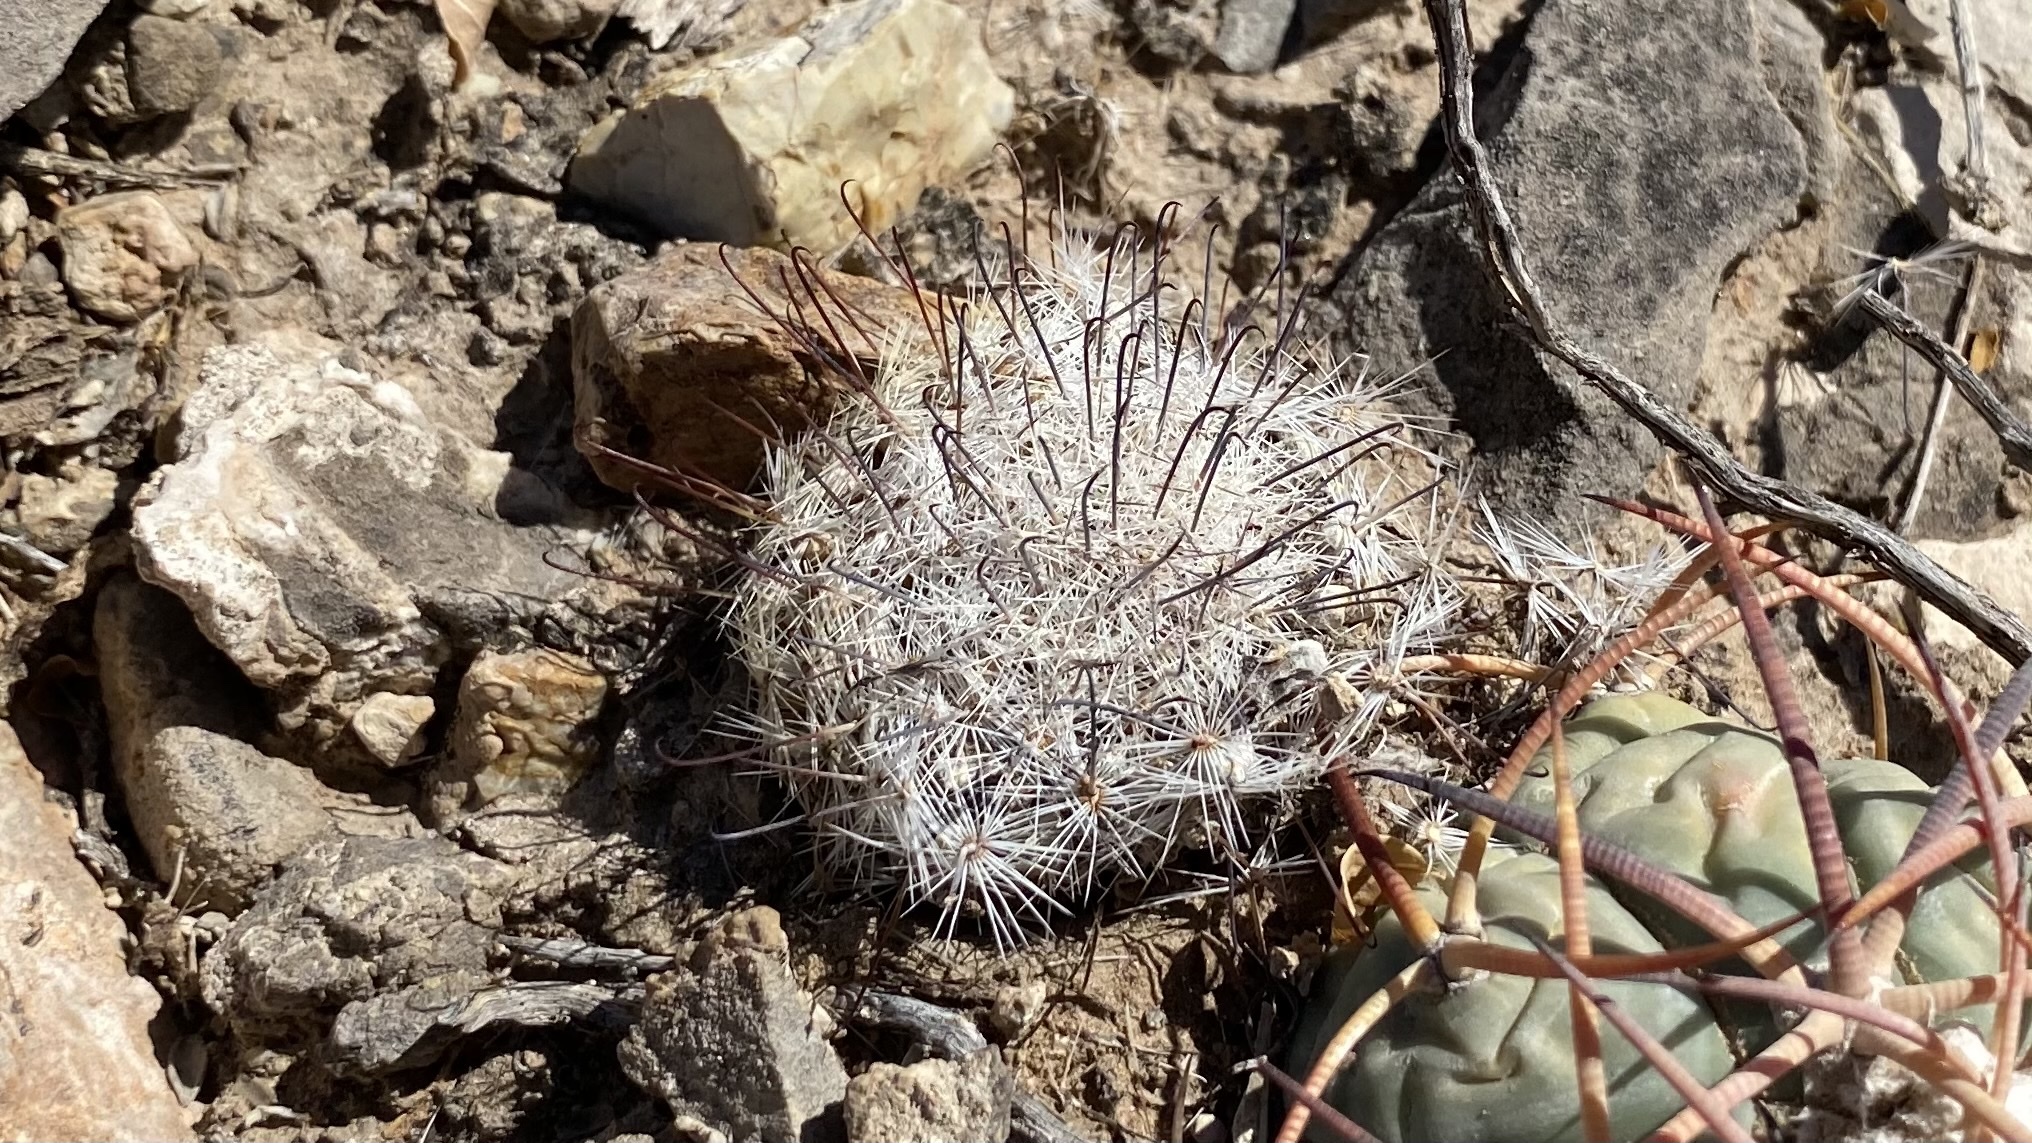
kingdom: Plantae
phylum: Tracheophyta
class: Magnoliopsida
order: Caryophyllales
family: Cactaceae
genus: Cochemiea
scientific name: Cochemiea grahamii
